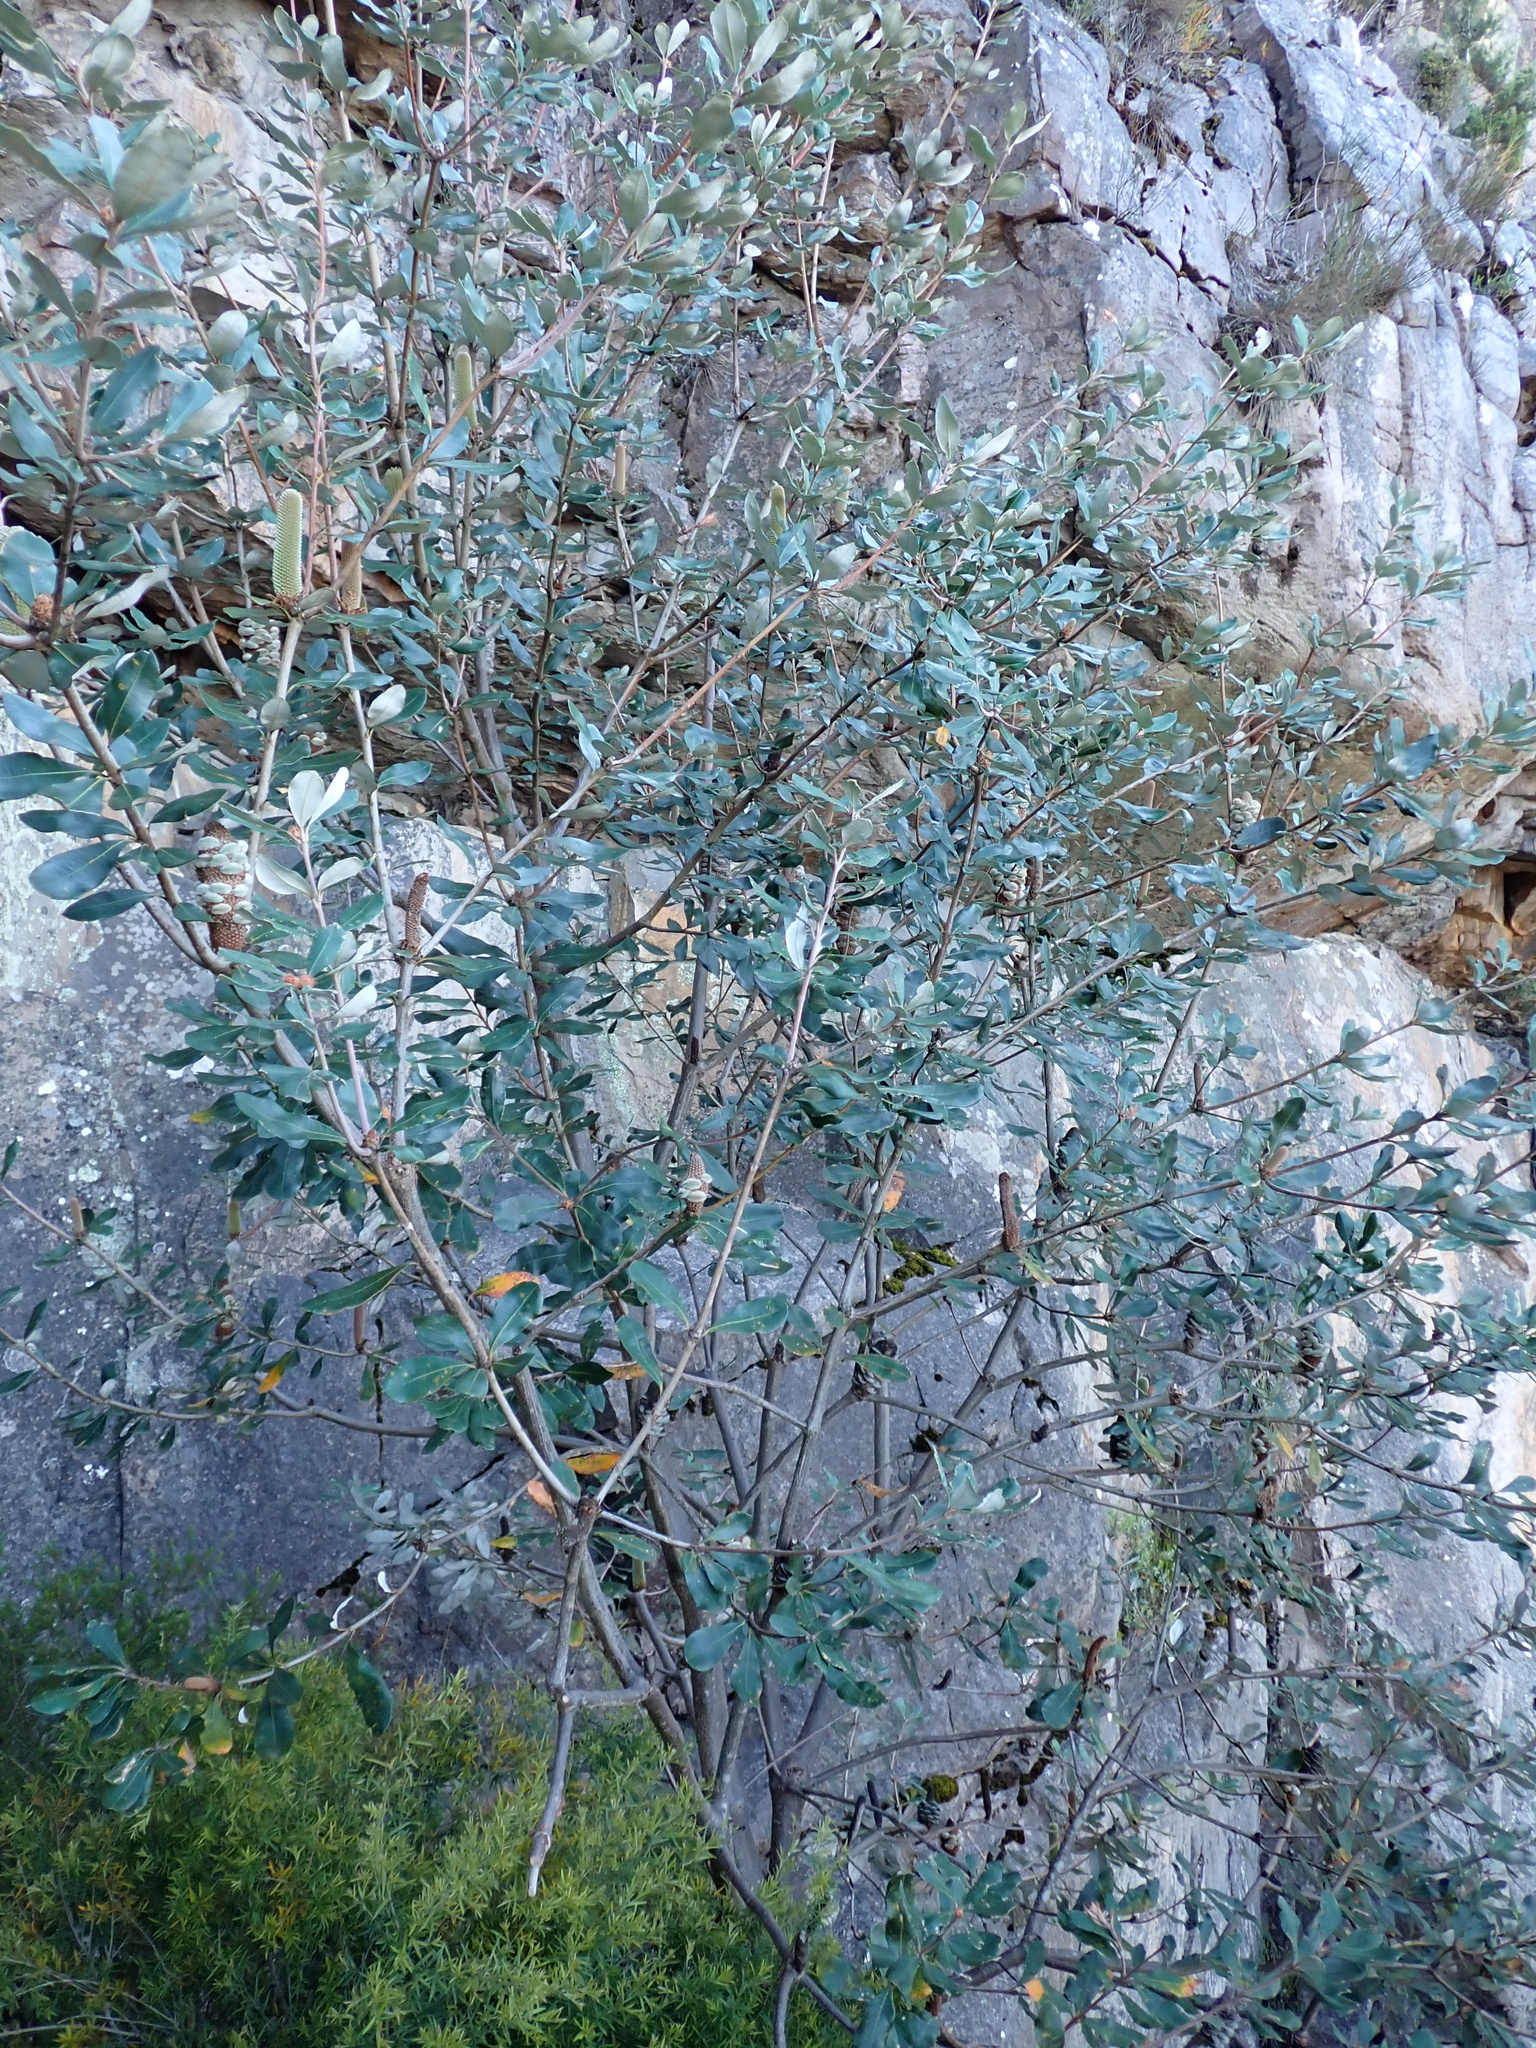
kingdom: Plantae
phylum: Tracheophyta
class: Magnoliopsida
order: Proteales
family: Proteaceae
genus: Banksia
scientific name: Banksia saxicola
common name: Grampians banksia
